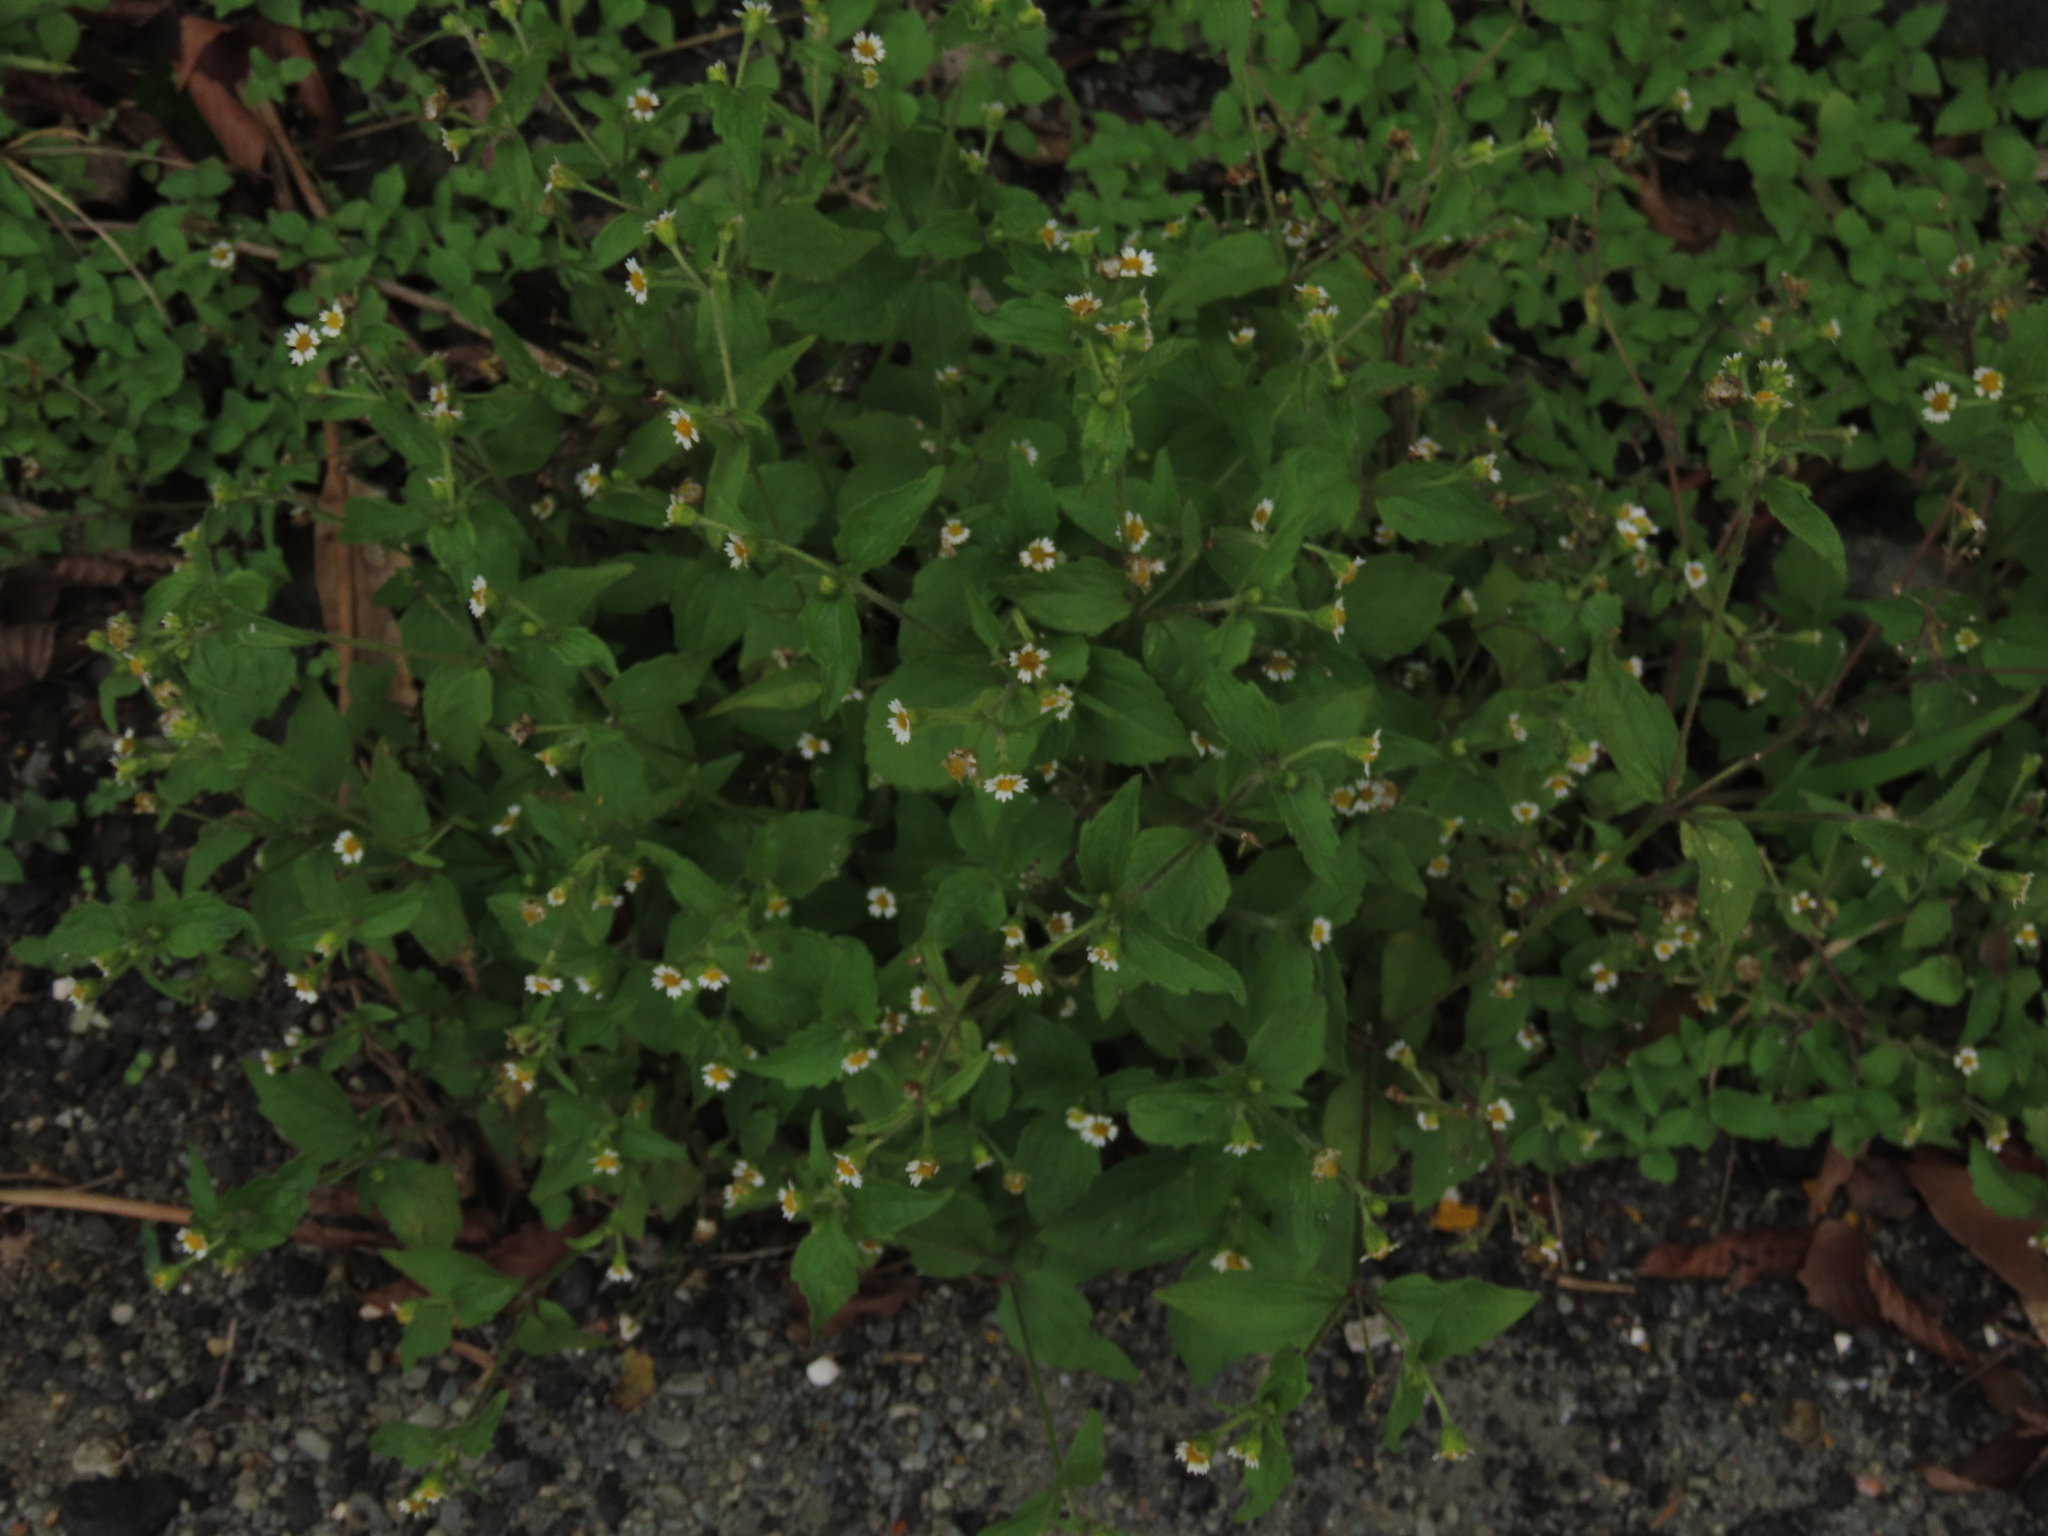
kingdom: Plantae
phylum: Tracheophyta
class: Magnoliopsida
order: Asterales
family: Asteraceae
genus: Galinsoga
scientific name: Galinsoga quadriradiata
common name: Shaggy soldier
